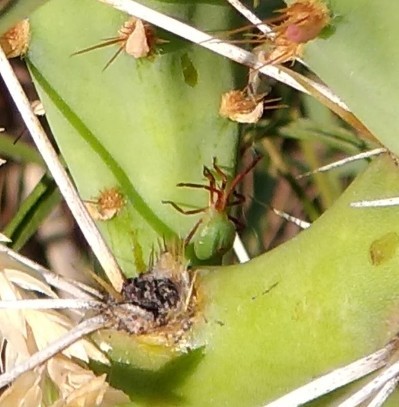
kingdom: Animalia
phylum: Arthropoda
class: Insecta
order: Hemiptera
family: Coreidae
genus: Chelinidea
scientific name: Chelinidea vittiger
